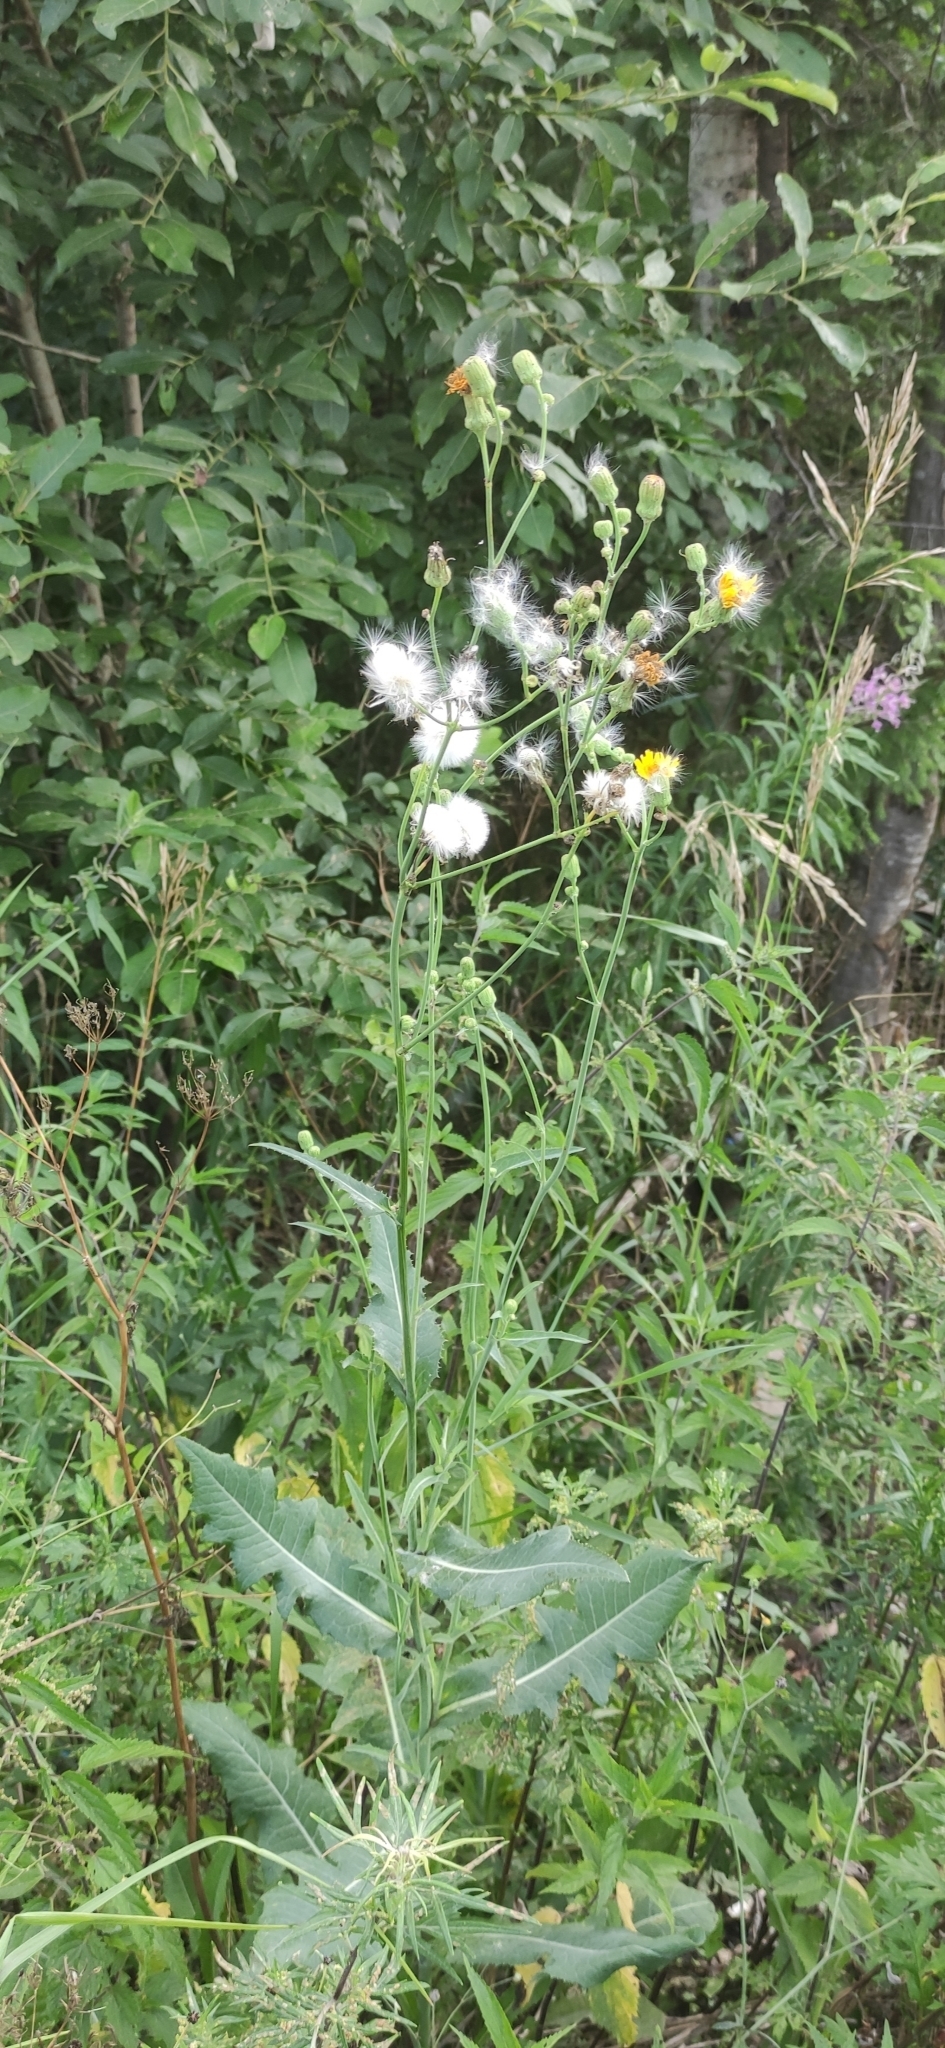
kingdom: Plantae
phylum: Tracheophyta
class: Magnoliopsida
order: Asterales
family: Asteraceae
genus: Sonchus
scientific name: Sonchus arvensis
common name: Perennial sow-thistle
